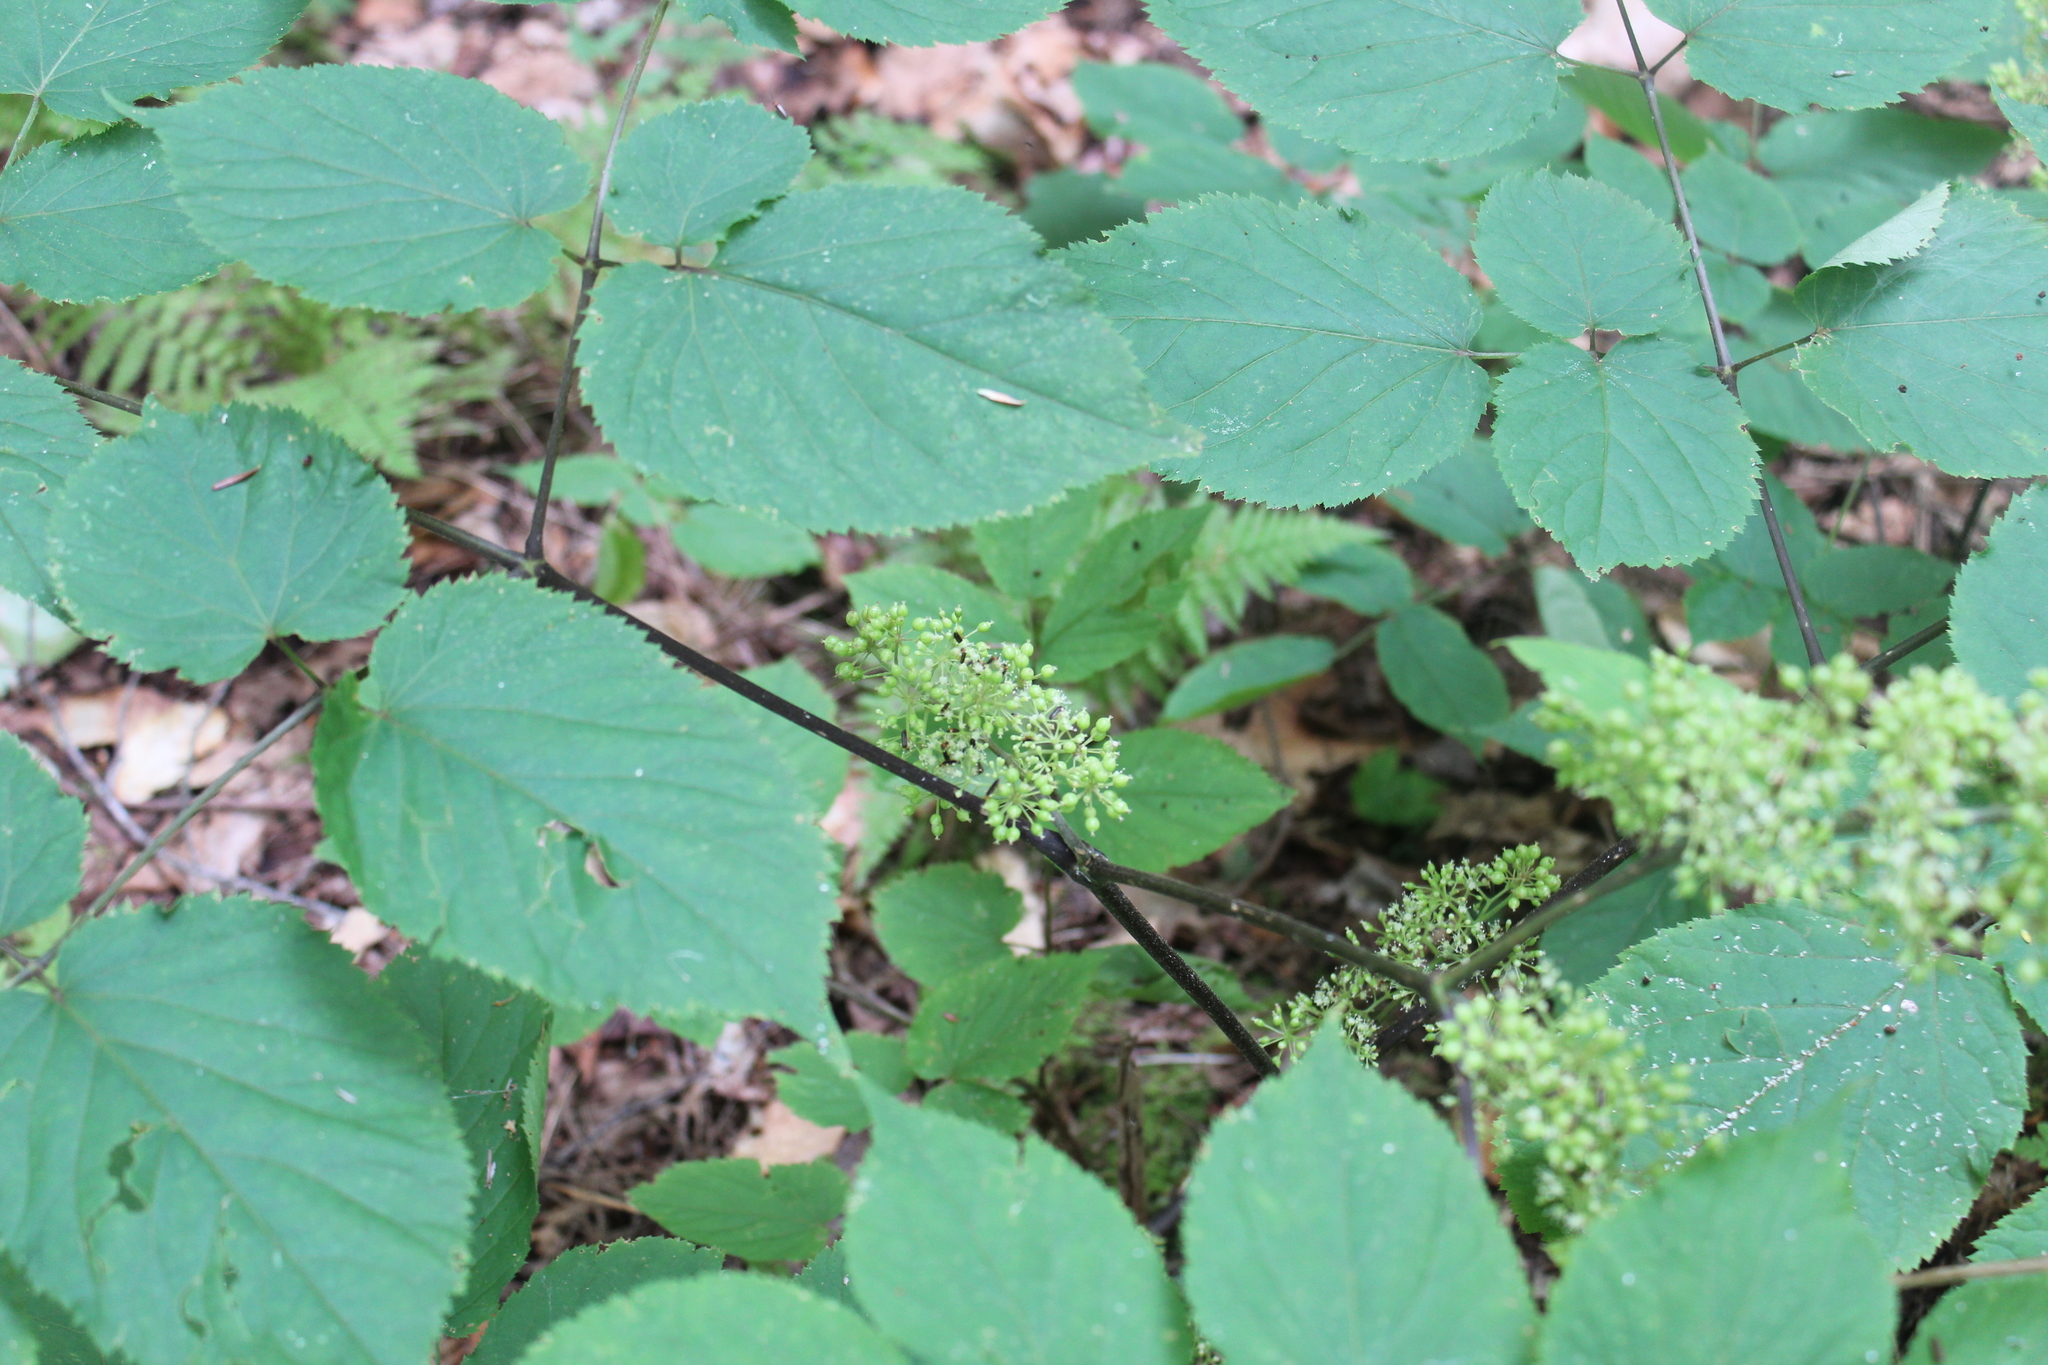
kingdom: Plantae
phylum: Tracheophyta
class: Magnoliopsida
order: Apiales
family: Araliaceae
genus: Aralia
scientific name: Aralia racemosa
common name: American-spikenard
